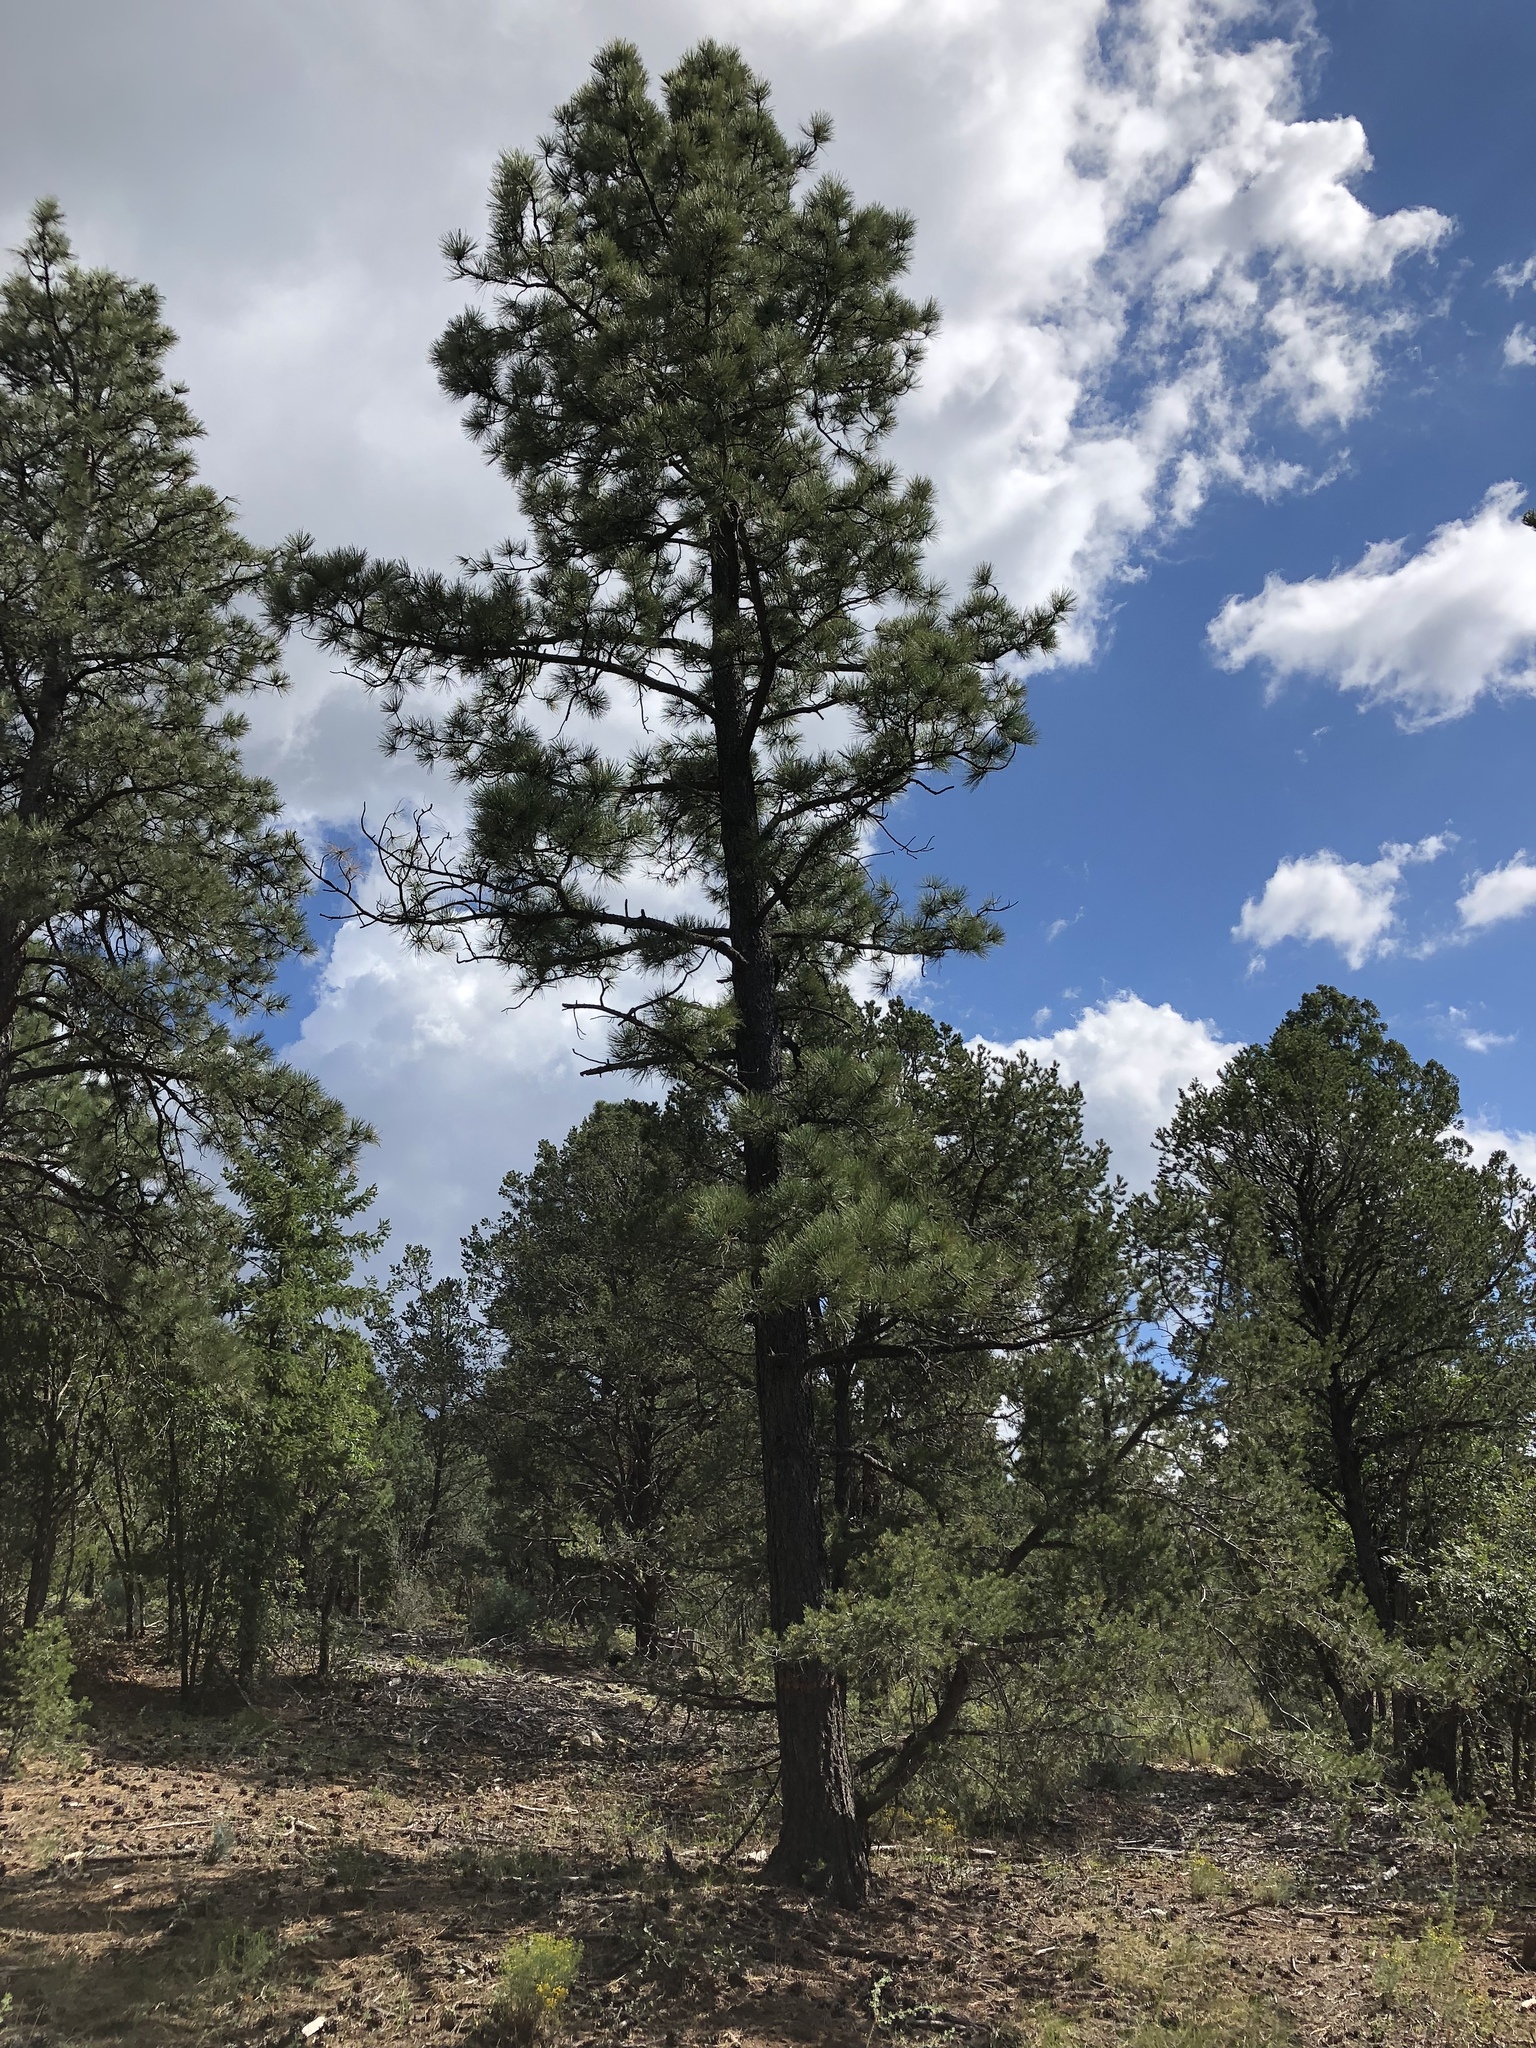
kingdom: Plantae
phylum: Tracheophyta
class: Pinopsida
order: Pinales
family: Pinaceae
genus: Pinus
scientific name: Pinus ponderosa
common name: Western yellow-pine
